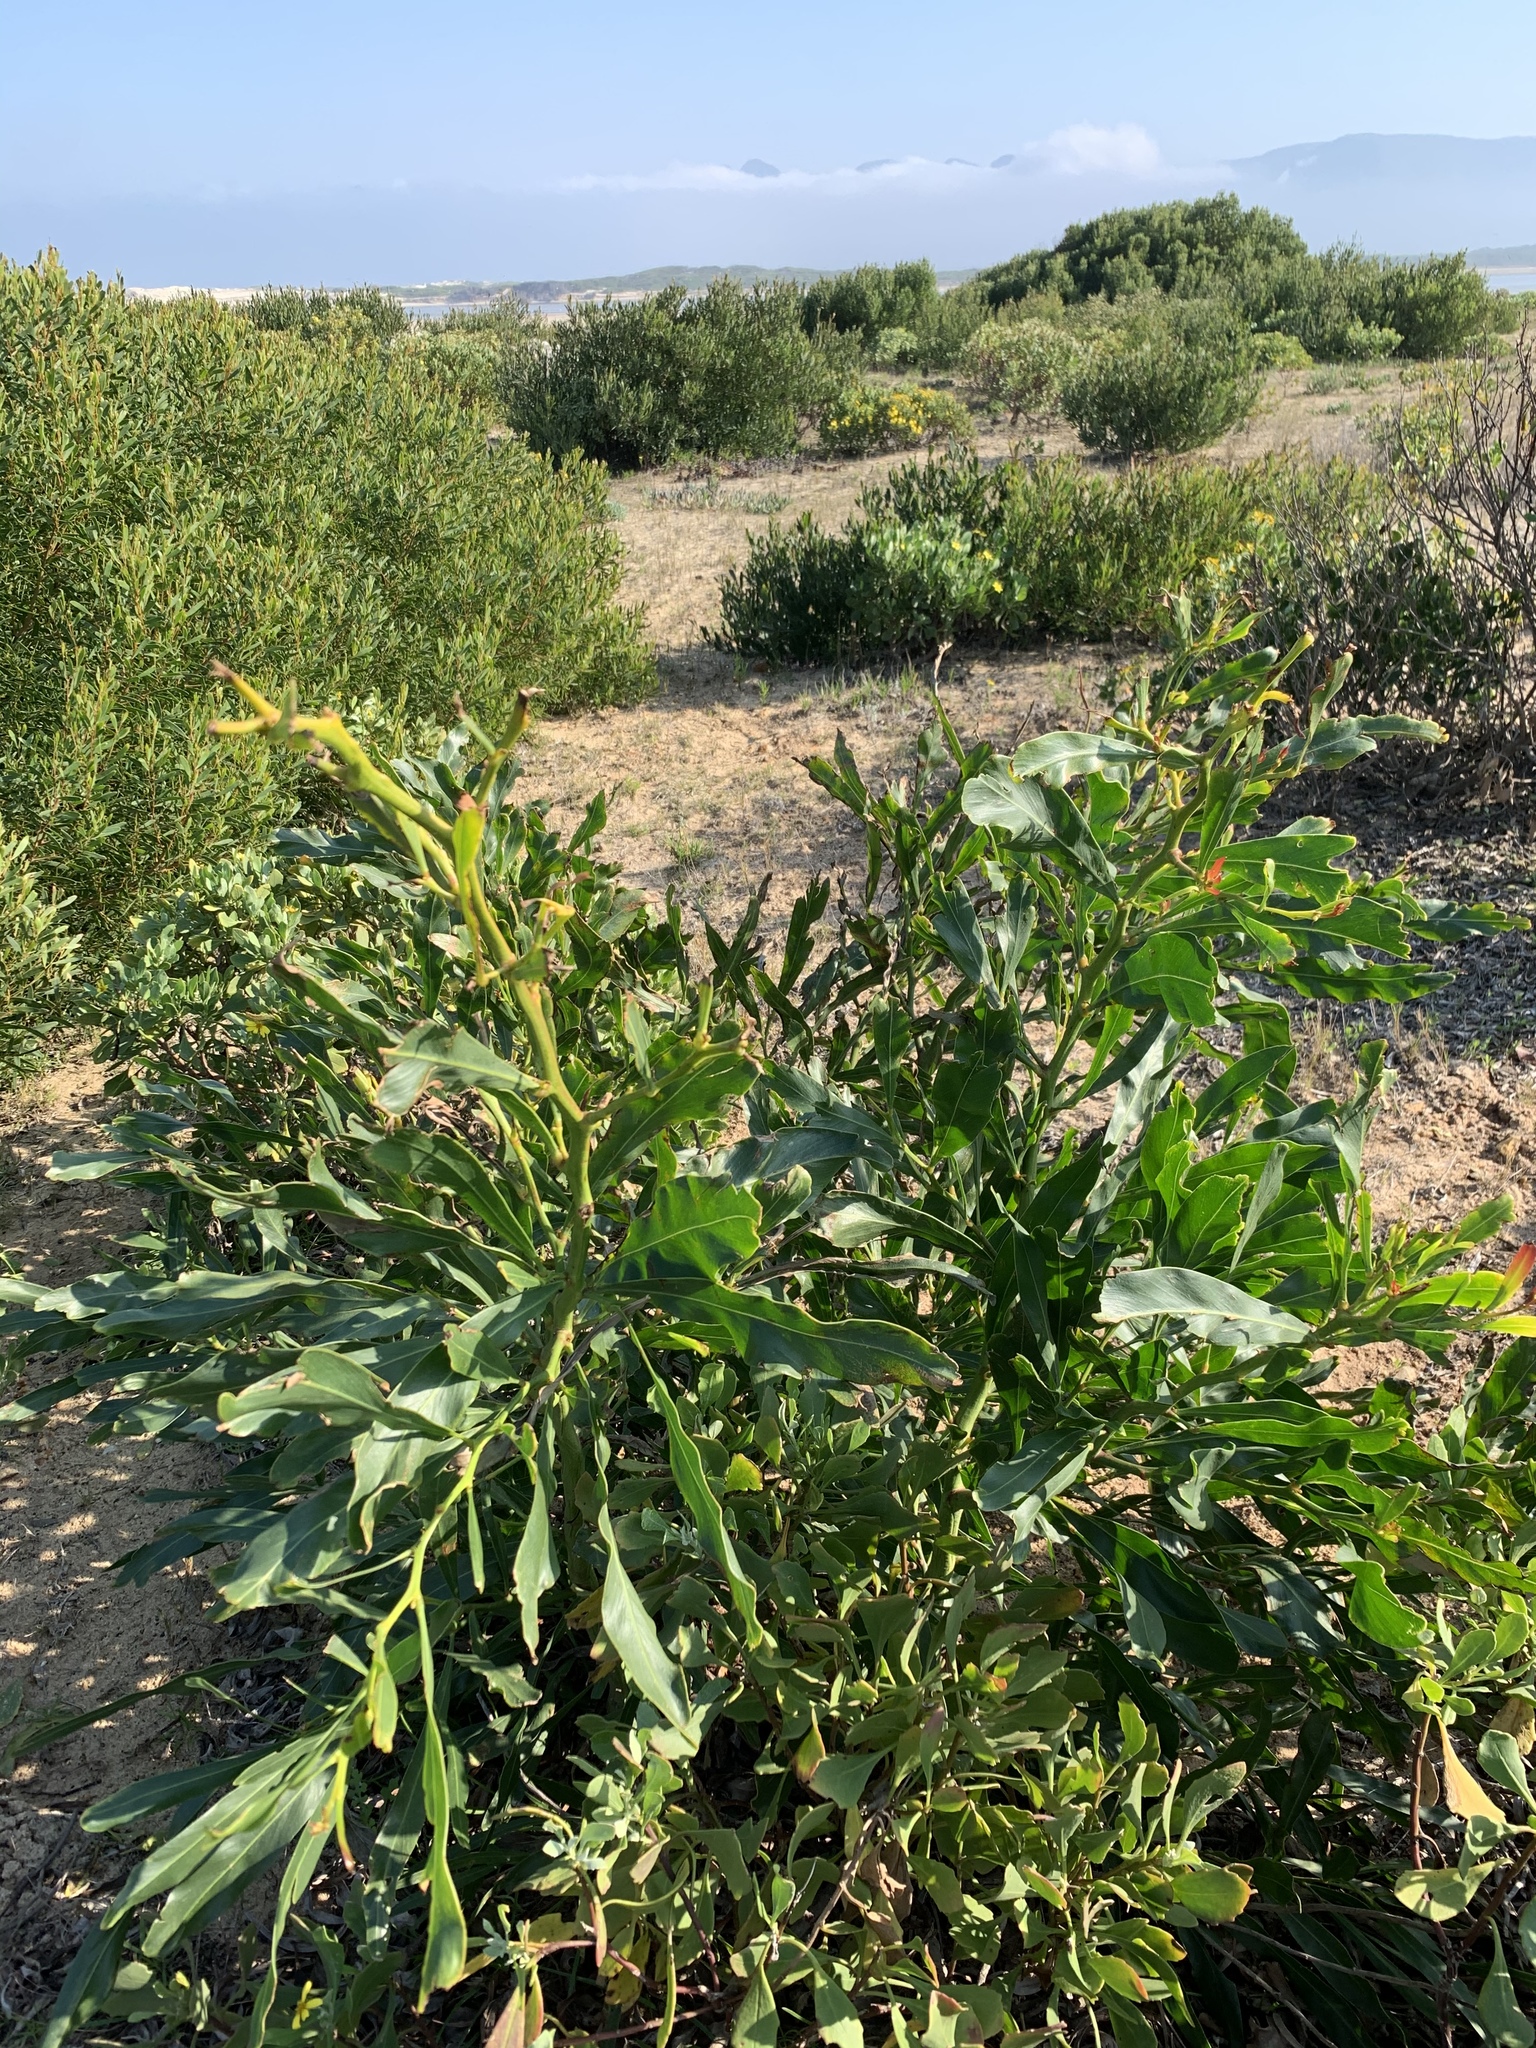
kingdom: Plantae
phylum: Tracheophyta
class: Magnoliopsida
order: Fabales
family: Fabaceae
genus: Acacia
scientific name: Acacia saligna
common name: Orange wattle
